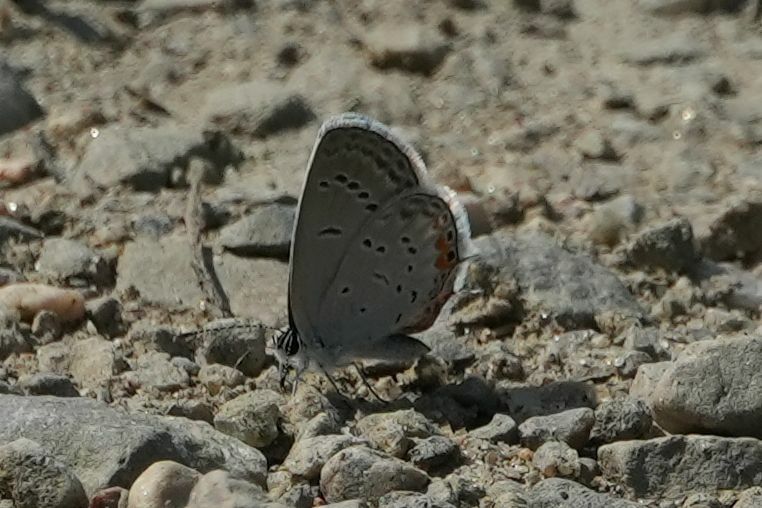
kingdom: Animalia
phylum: Arthropoda
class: Insecta
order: Lepidoptera
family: Lycaenidae
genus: Elkalyce
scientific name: Elkalyce comyntas
